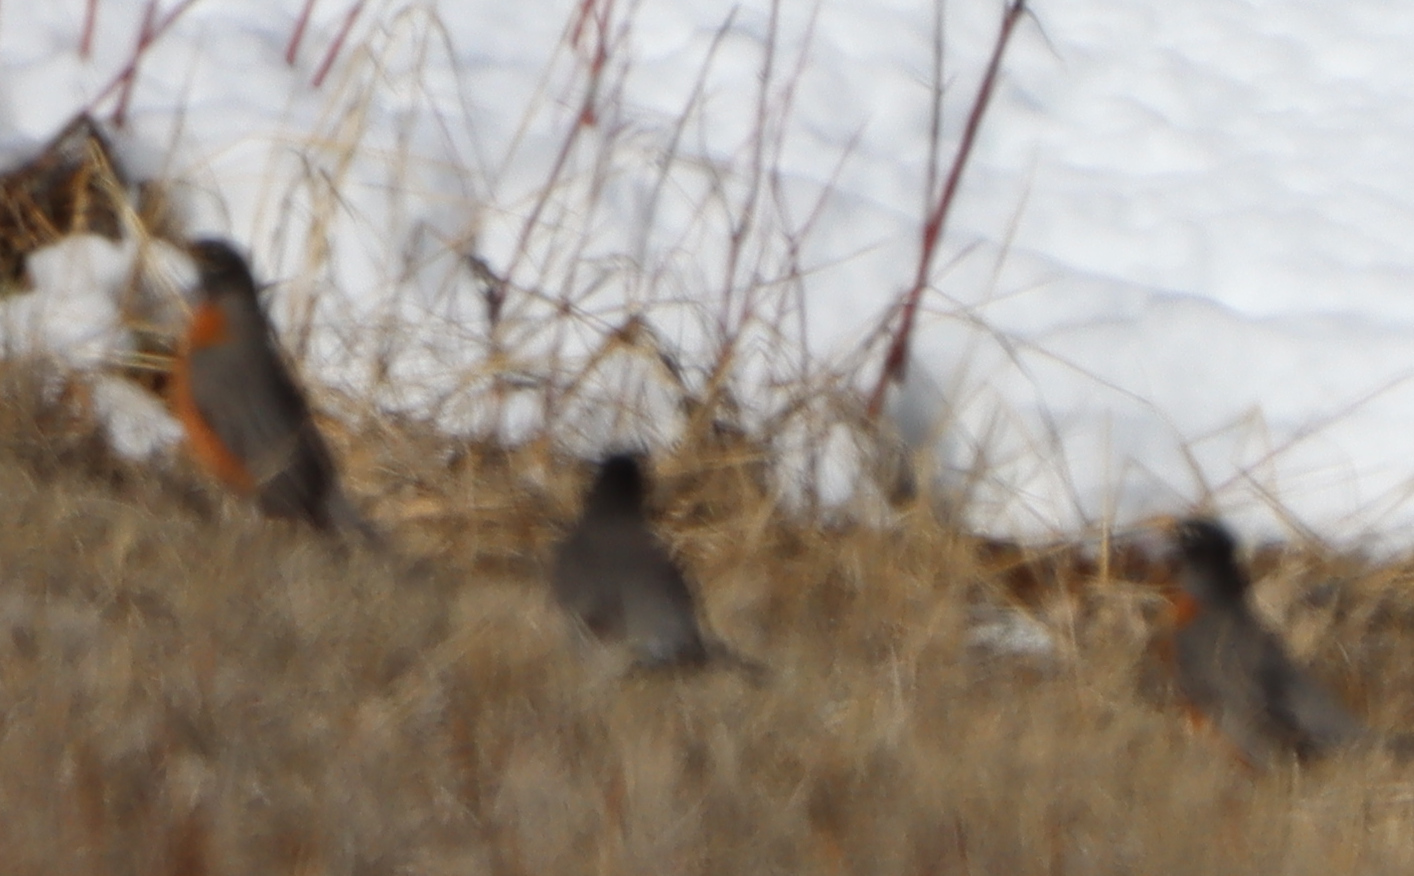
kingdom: Animalia
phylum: Chordata
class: Aves
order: Passeriformes
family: Turdidae
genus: Turdus
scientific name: Turdus migratorius
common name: American robin
